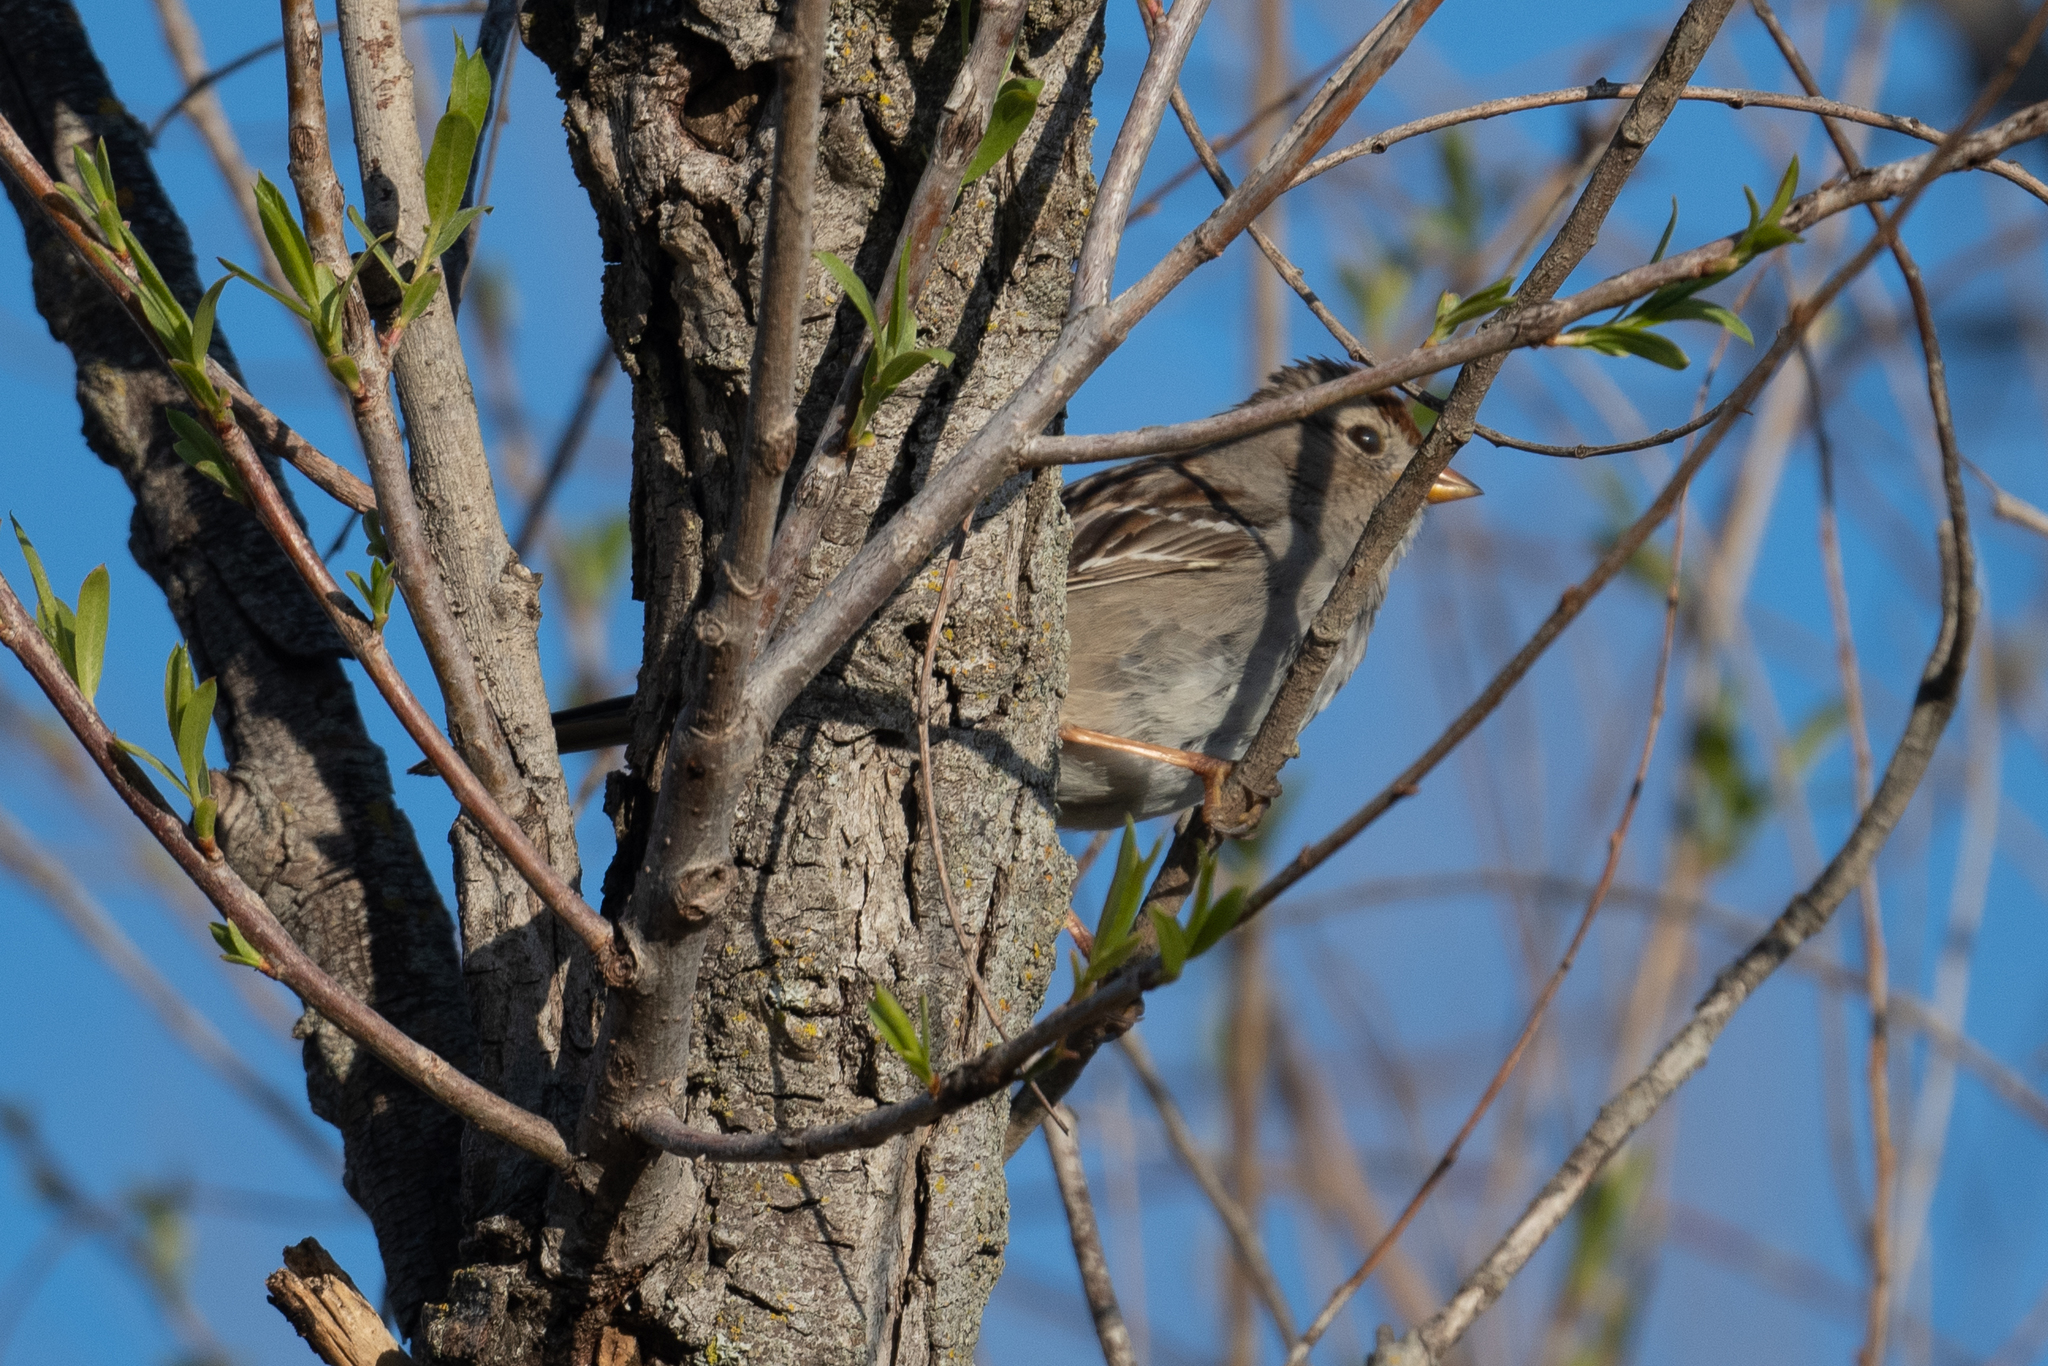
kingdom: Animalia
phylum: Chordata
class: Aves
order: Passeriformes
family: Passerellidae
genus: Zonotrichia
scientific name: Zonotrichia leucophrys
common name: White-crowned sparrow
